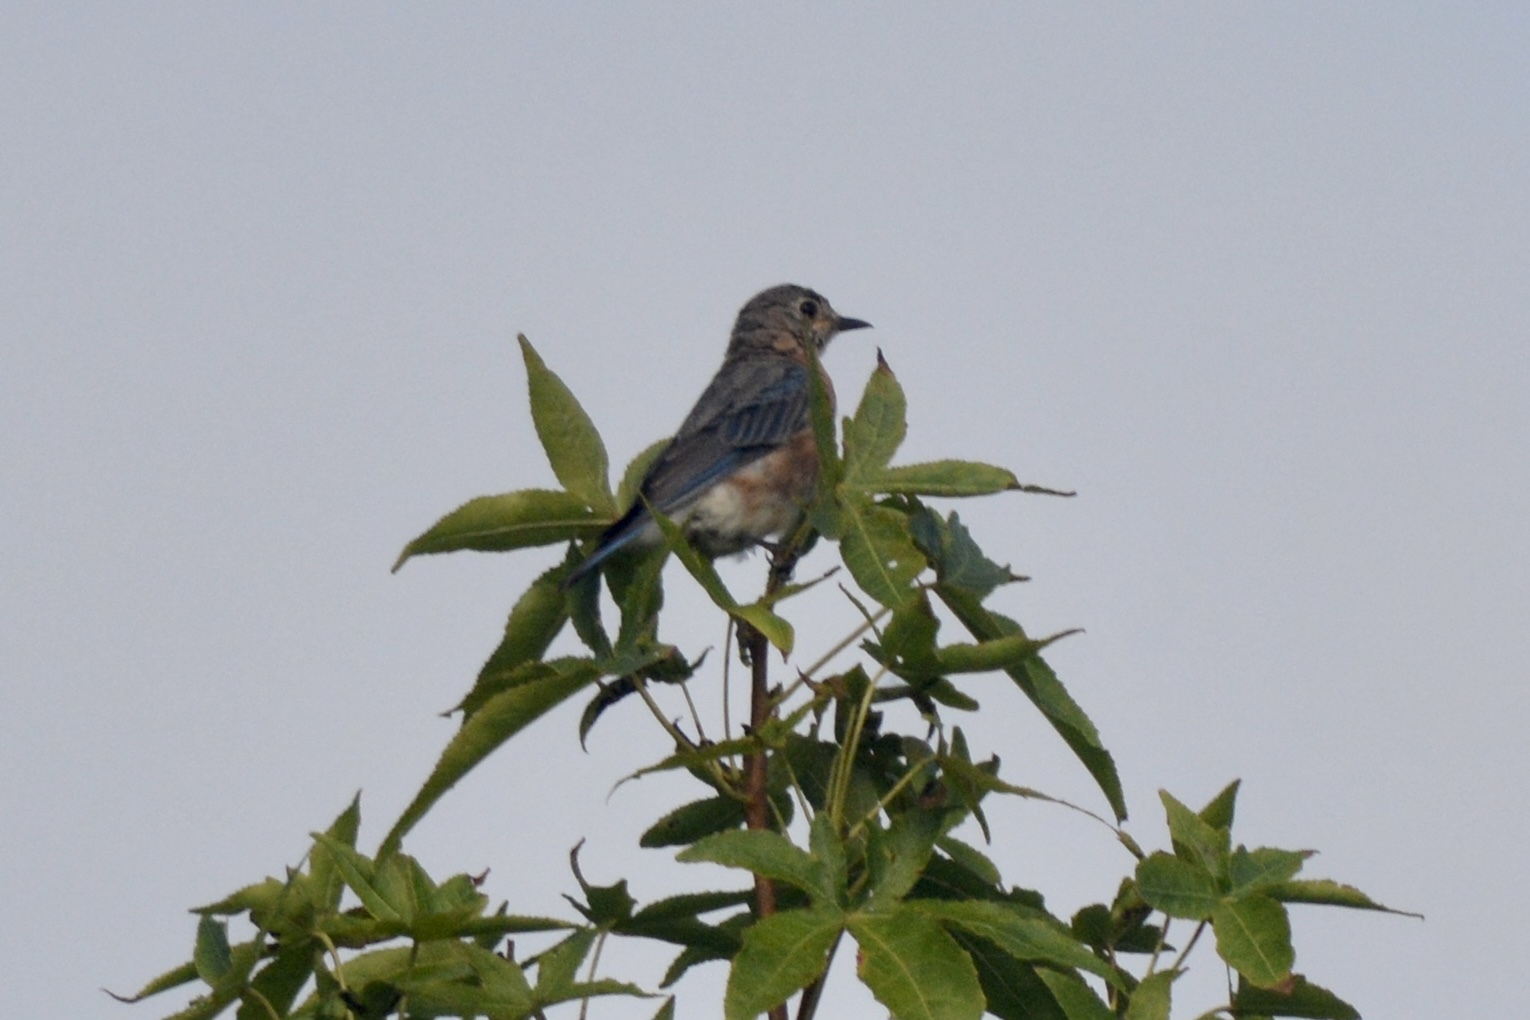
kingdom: Animalia
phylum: Chordata
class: Aves
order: Passeriformes
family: Turdidae
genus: Sialia
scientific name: Sialia sialis
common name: Eastern bluebird
